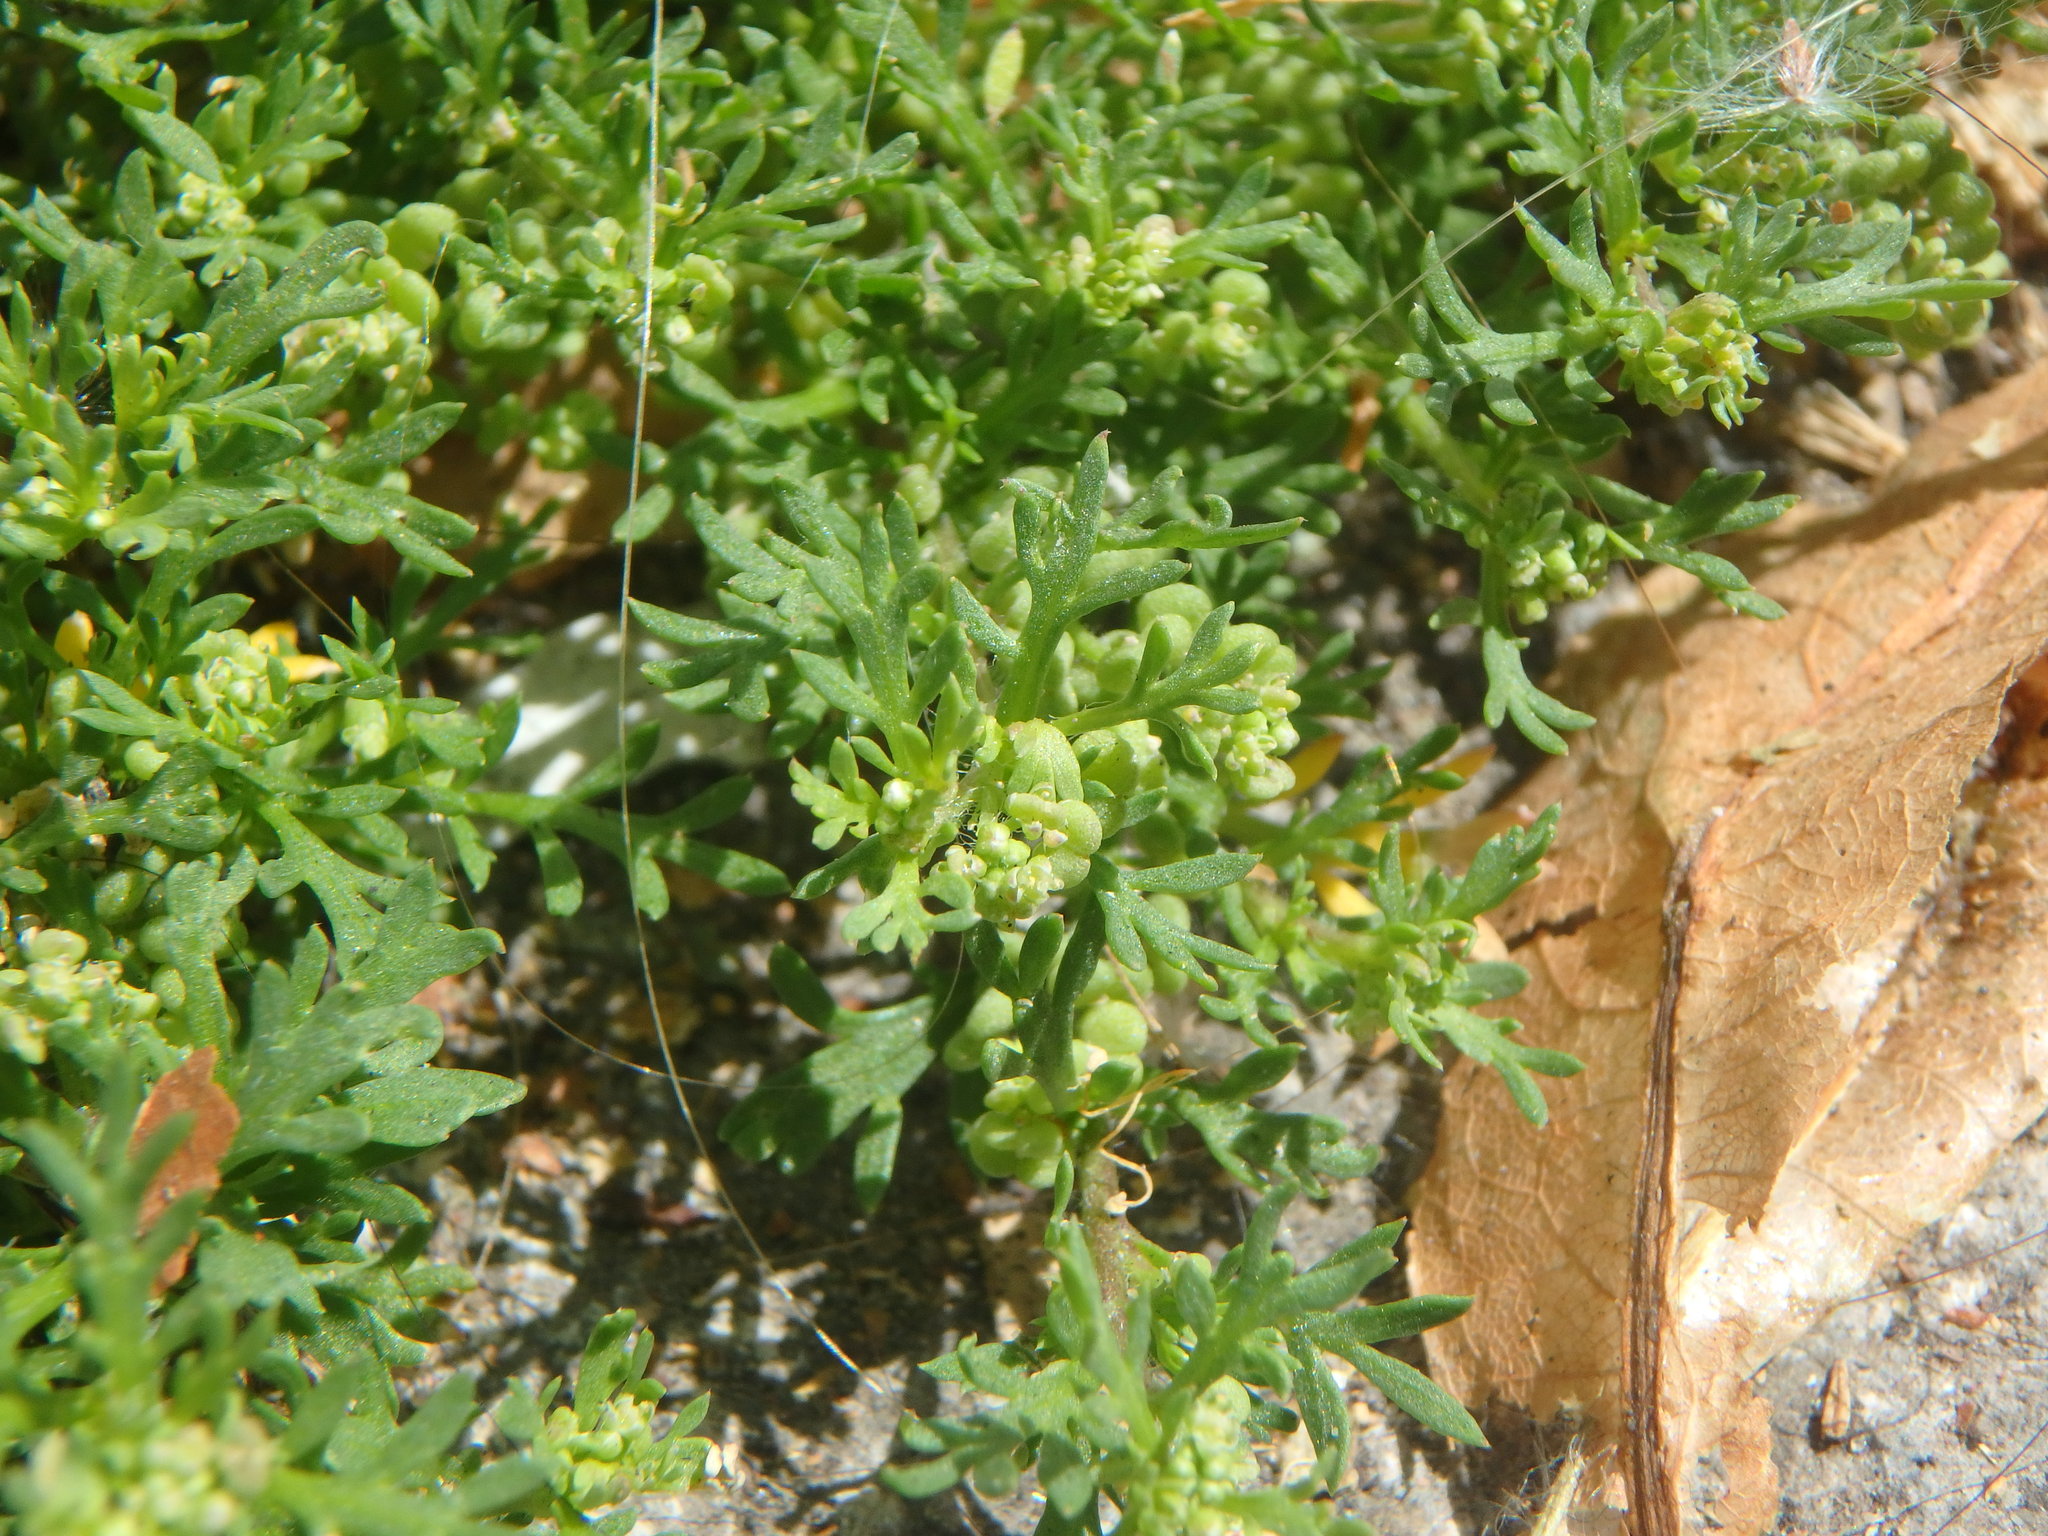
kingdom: Plantae
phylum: Tracheophyta
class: Magnoliopsida
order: Brassicales
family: Brassicaceae
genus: Lepidium
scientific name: Lepidium didymum
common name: Lesser swinecress
